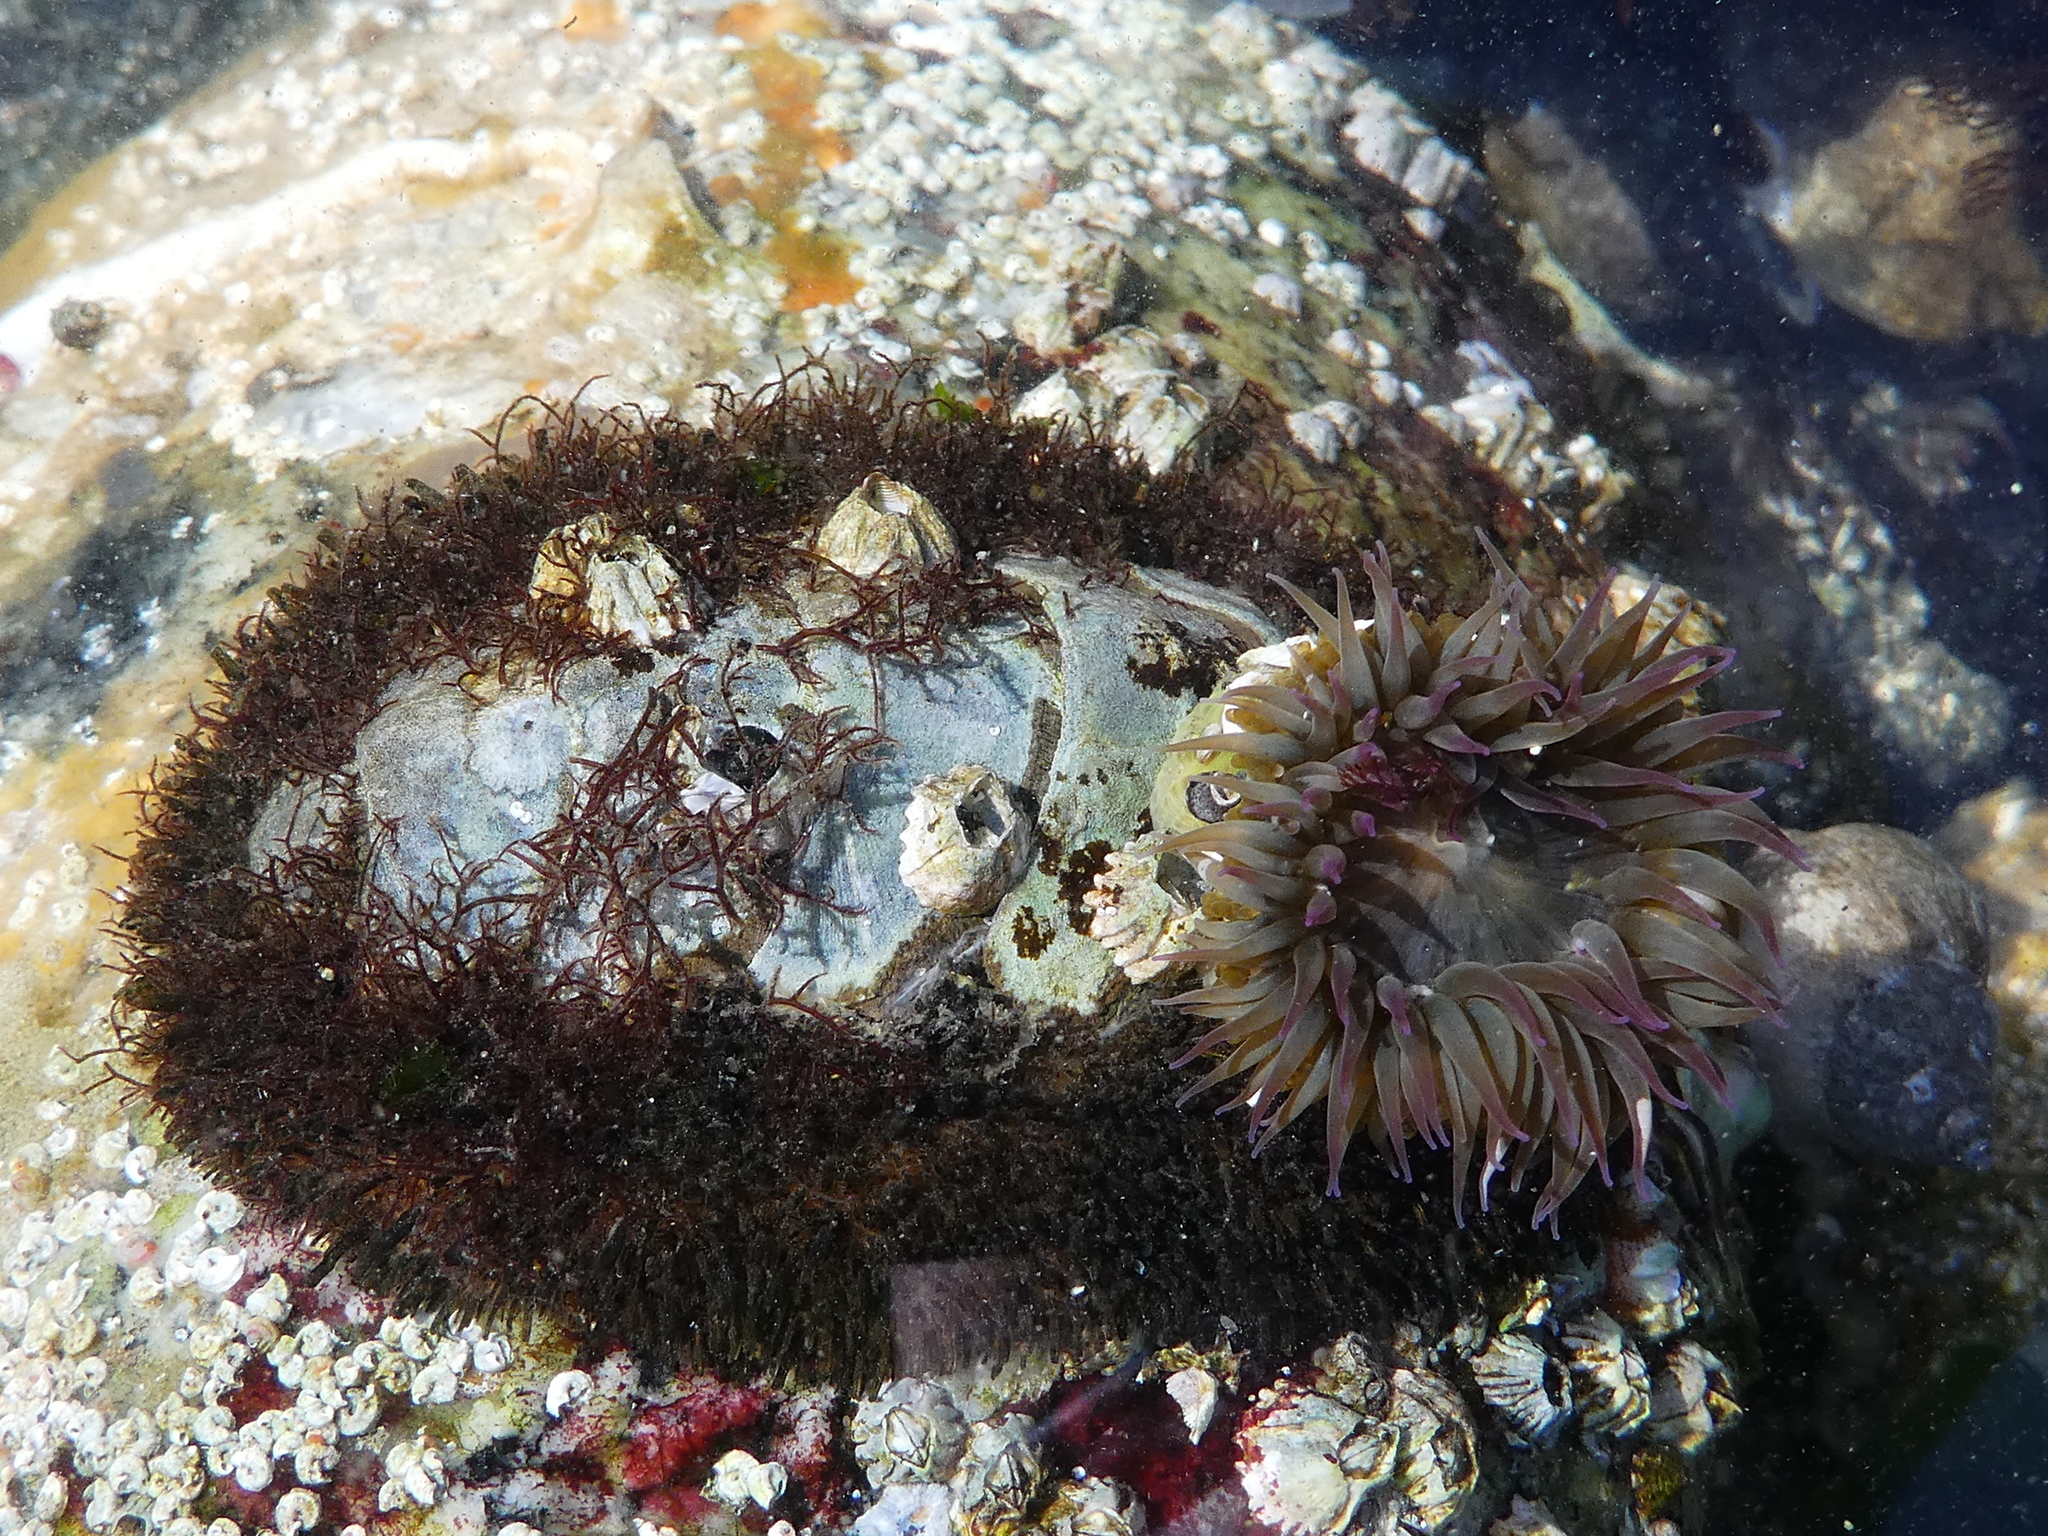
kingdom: Animalia
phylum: Mollusca
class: Polyplacophora
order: Chitonida
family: Mopaliidae
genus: Mopalia
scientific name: Mopalia muscosa
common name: Mossy chiton
